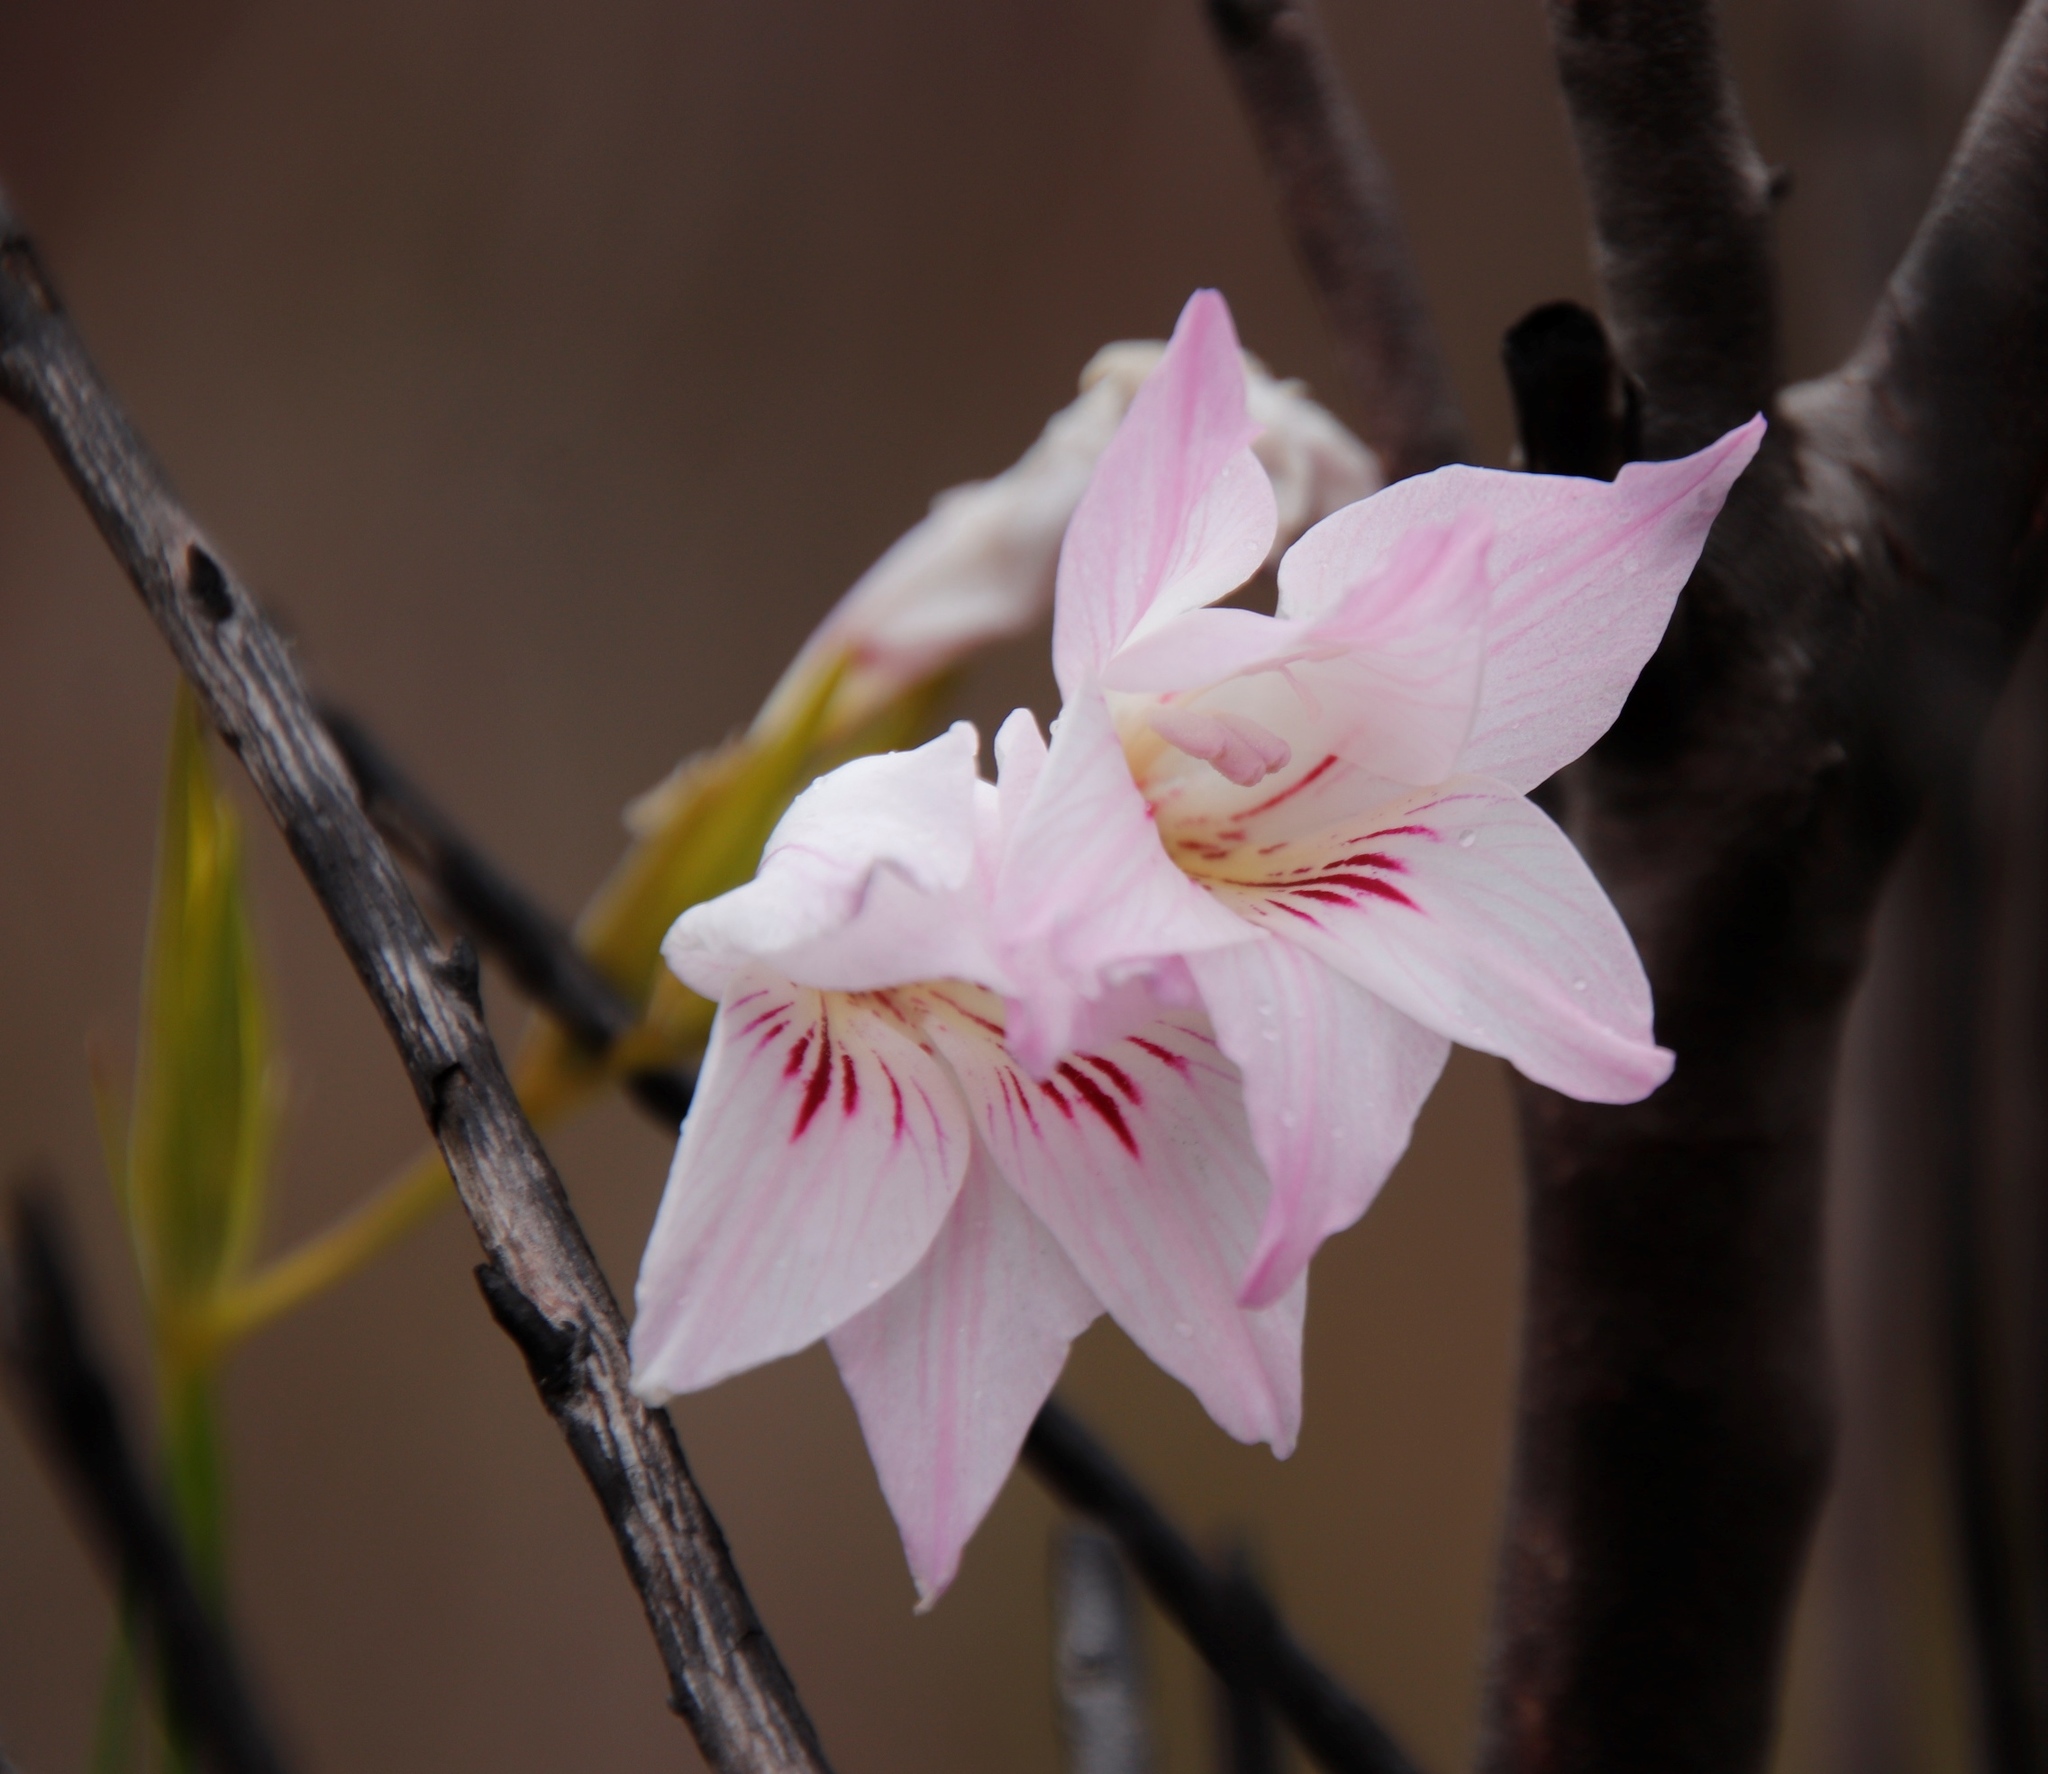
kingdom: Plantae
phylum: Tracheophyta
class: Liliopsida
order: Asparagales
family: Iridaceae
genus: Gladiolus
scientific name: Gladiolus hirsutus
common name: Small pink afrikaner
